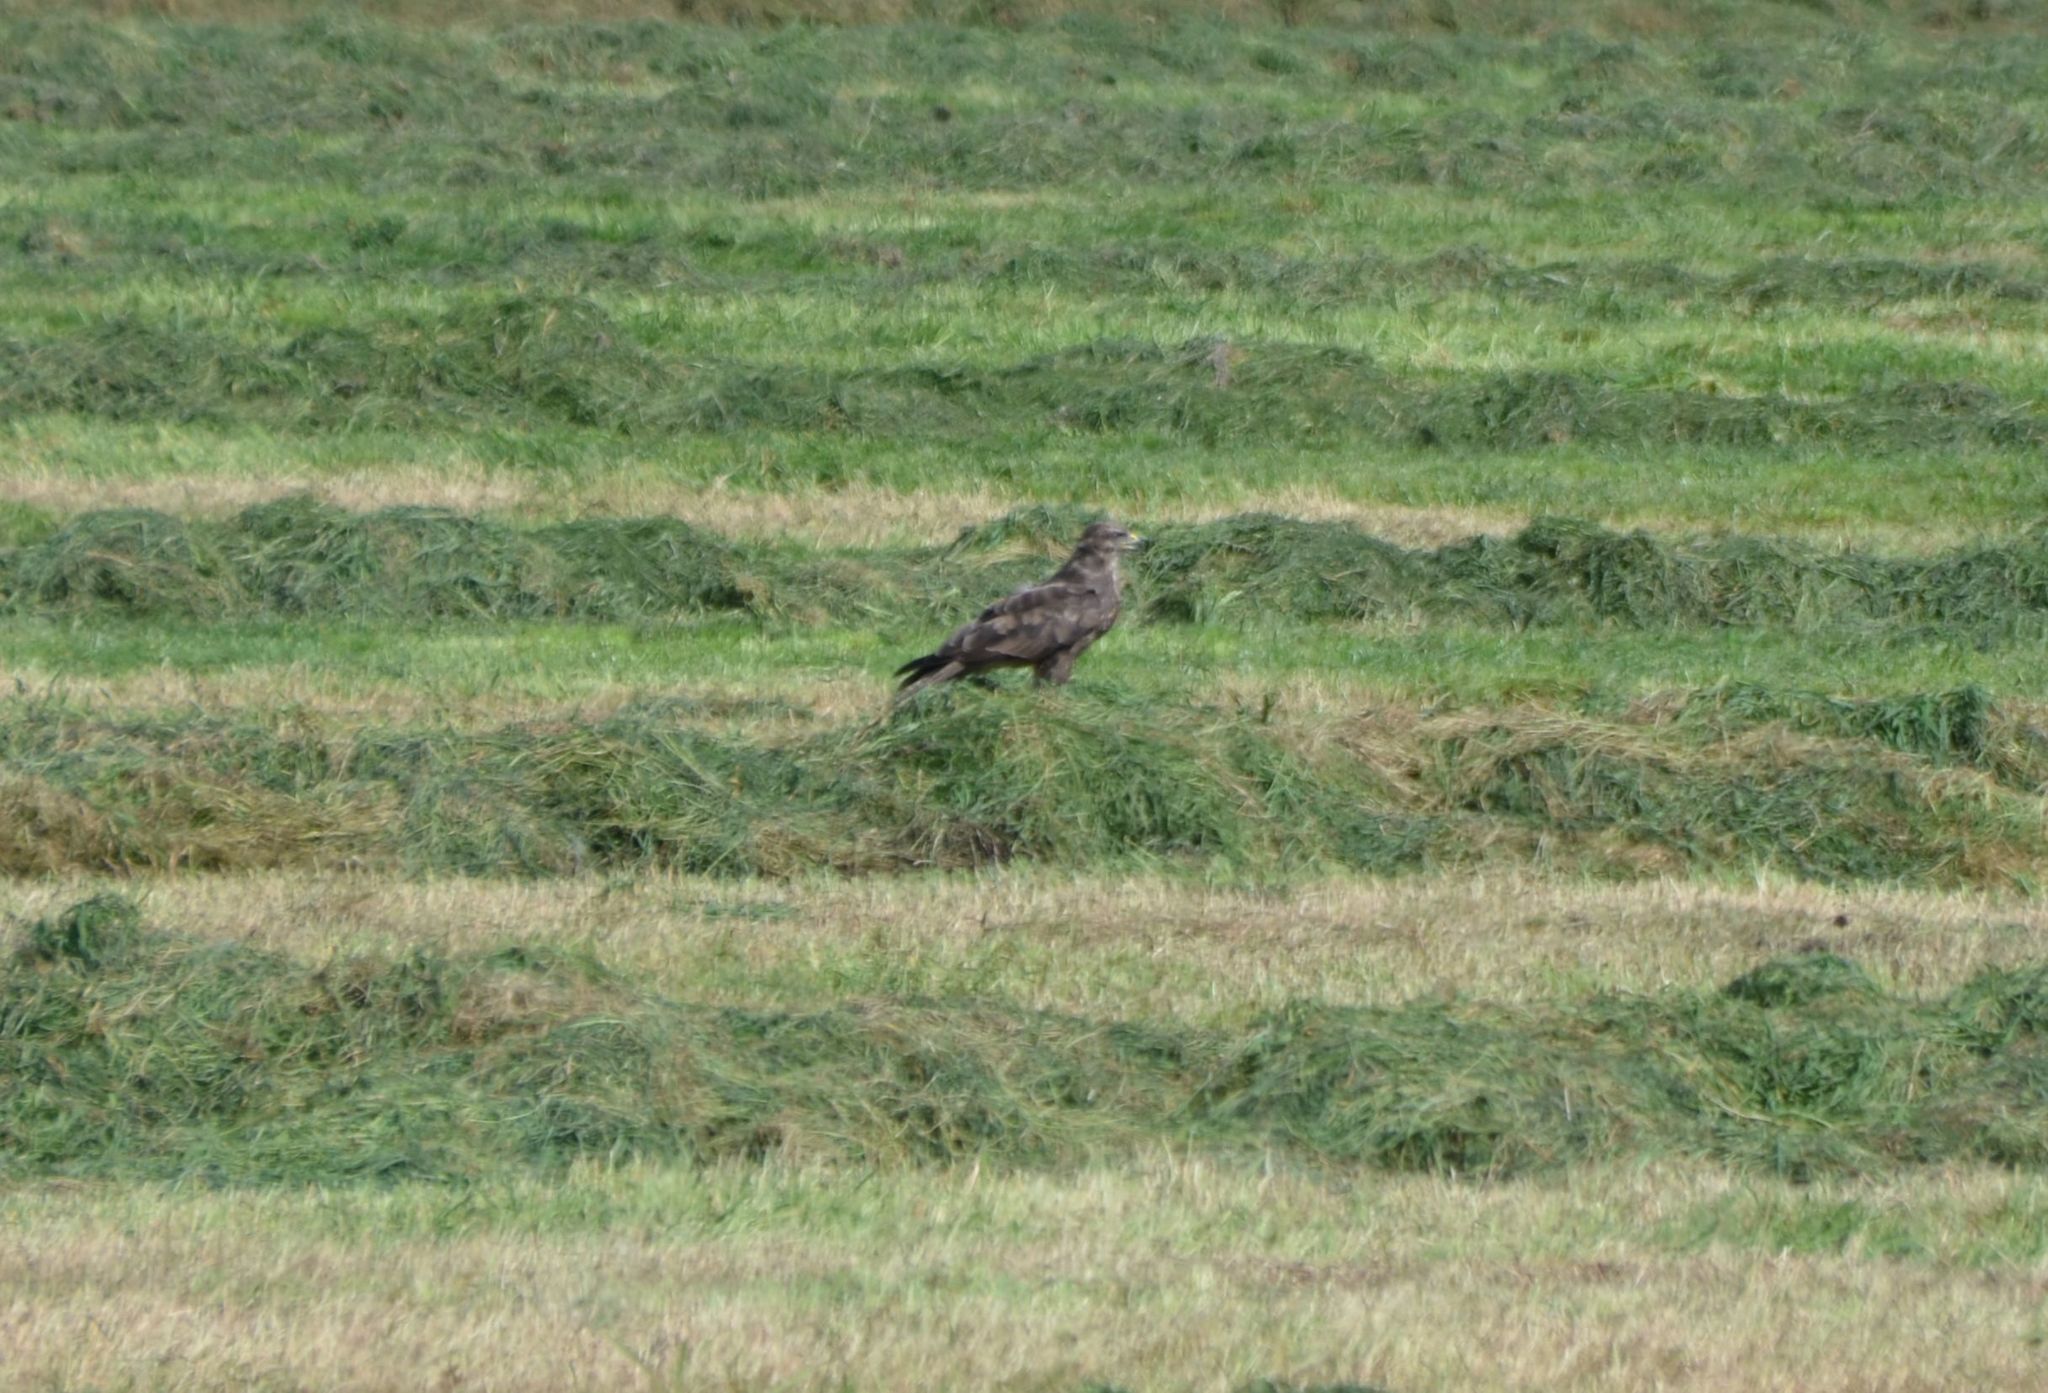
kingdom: Animalia
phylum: Chordata
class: Aves
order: Accipitriformes
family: Accipitridae
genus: Buteo
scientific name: Buteo buteo
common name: Common buzzard
